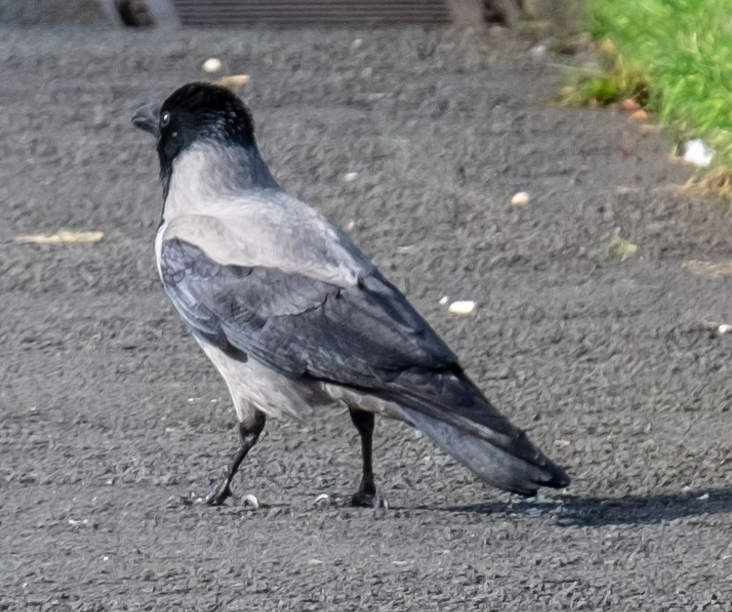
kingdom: Animalia
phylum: Chordata
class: Aves
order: Passeriformes
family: Corvidae
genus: Corvus
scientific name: Corvus cornix
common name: Hooded crow
